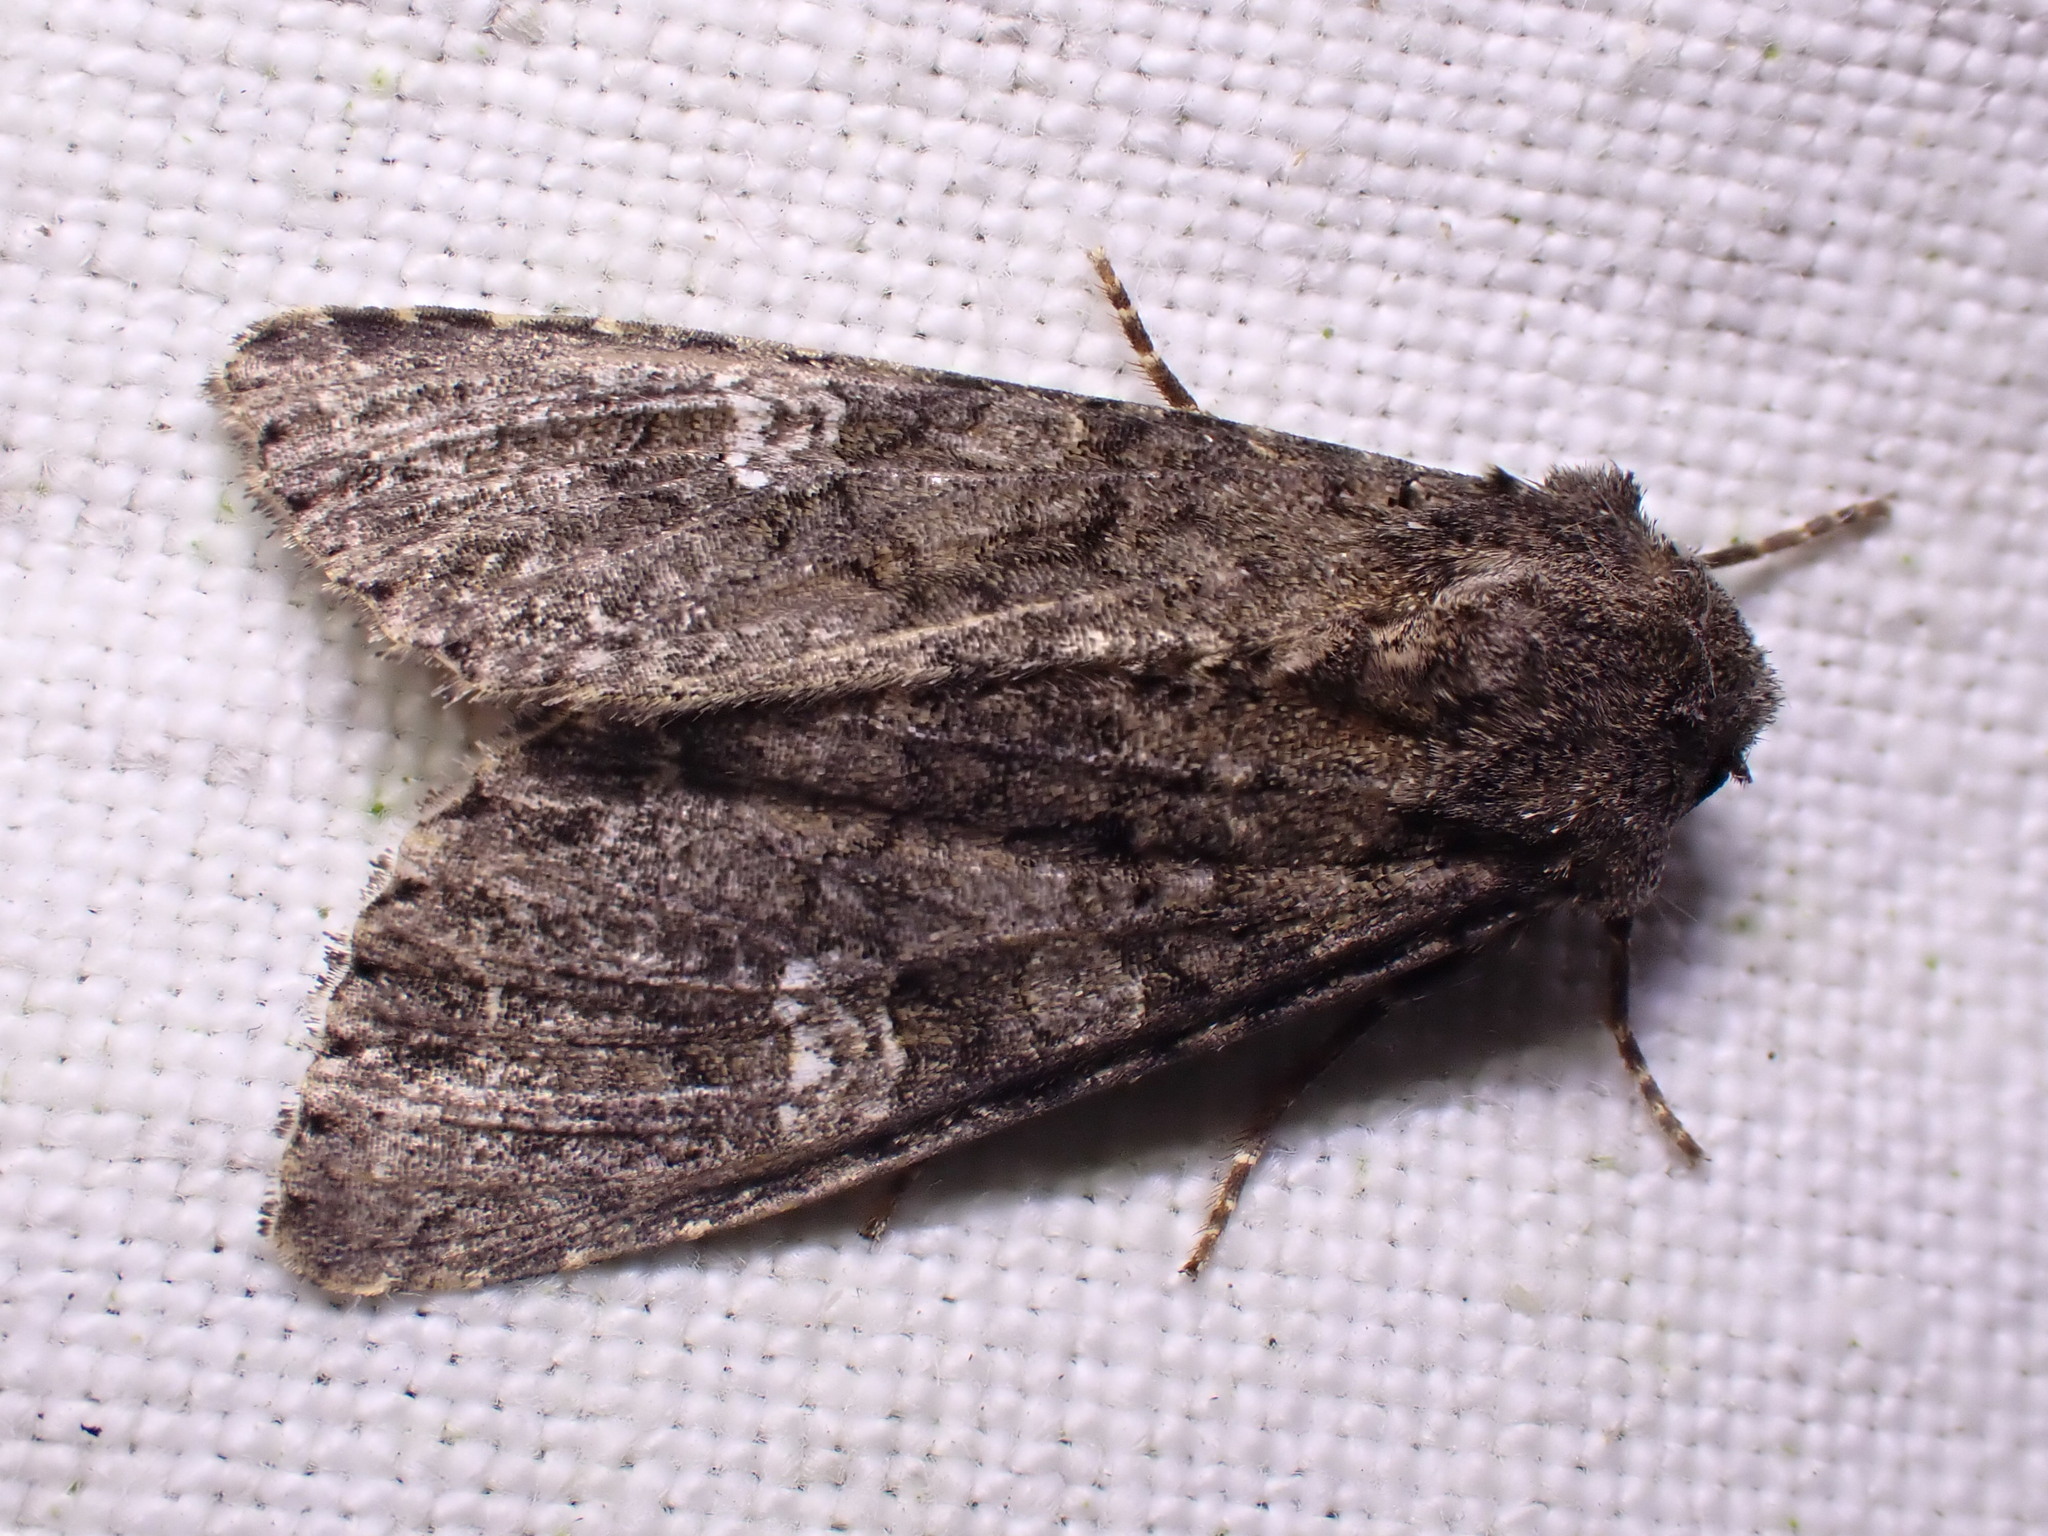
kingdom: Animalia
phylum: Arthropoda
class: Insecta
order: Lepidoptera
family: Noctuidae
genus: Mamestra
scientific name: Mamestra brassicae
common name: Cabbage moth
